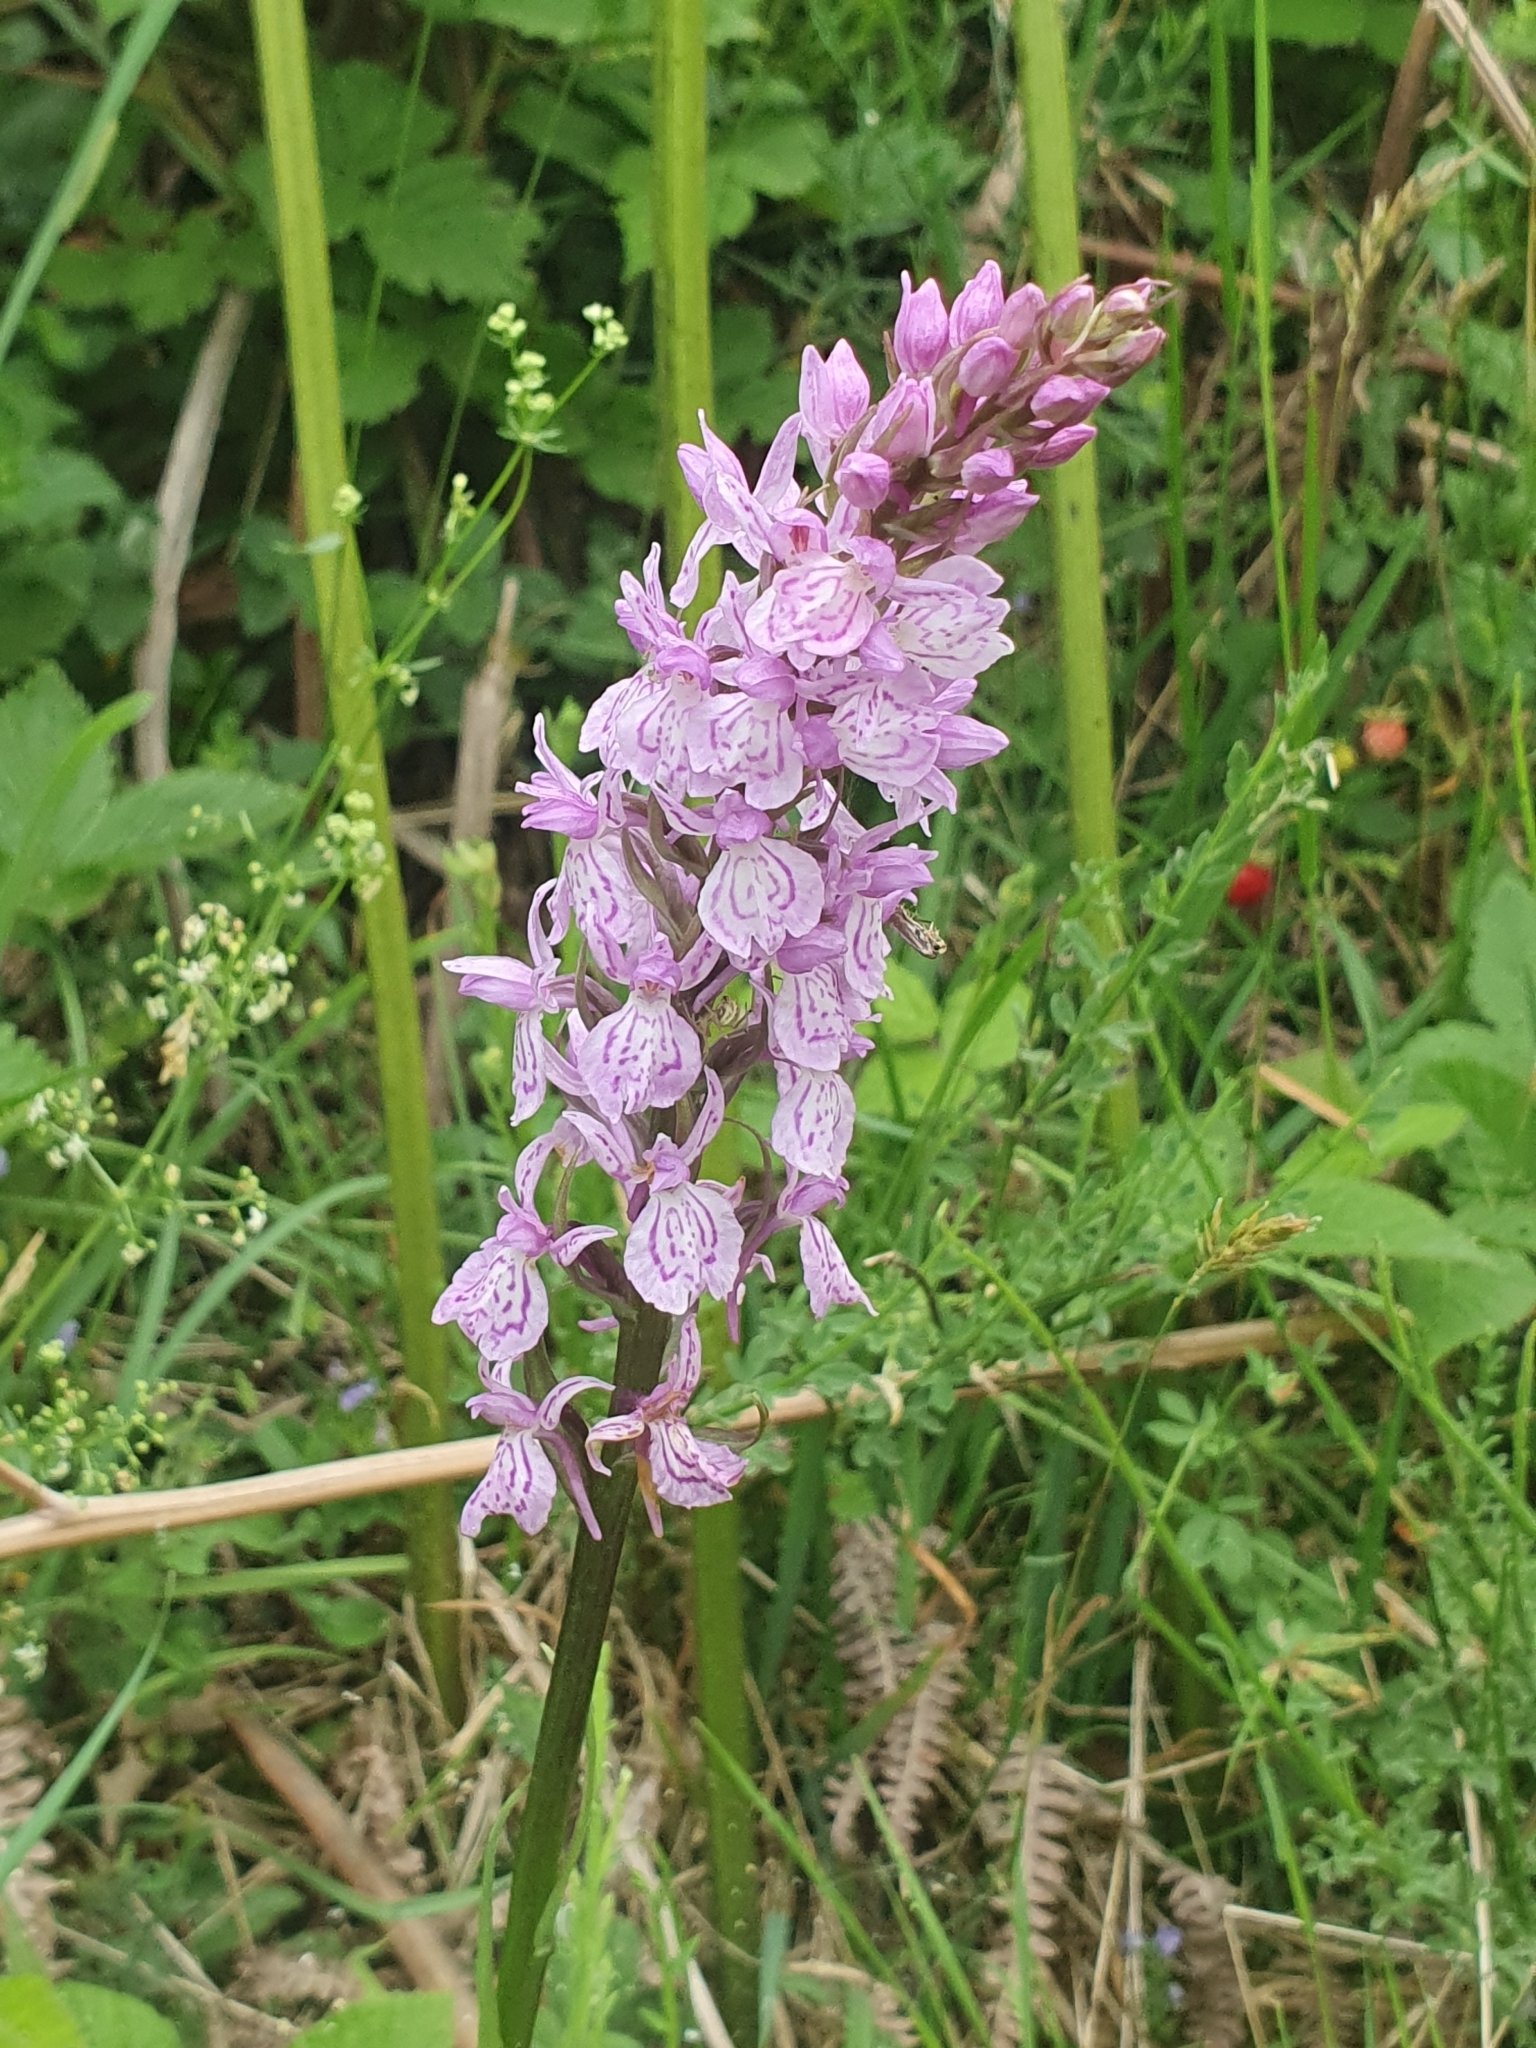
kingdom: Plantae
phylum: Tracheophyta
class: Liliopsida
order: Asparagales
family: Orchidaceae
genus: Dactylorhiza
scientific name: Dactylorhiza maculata
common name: Heath spotted-orchid
